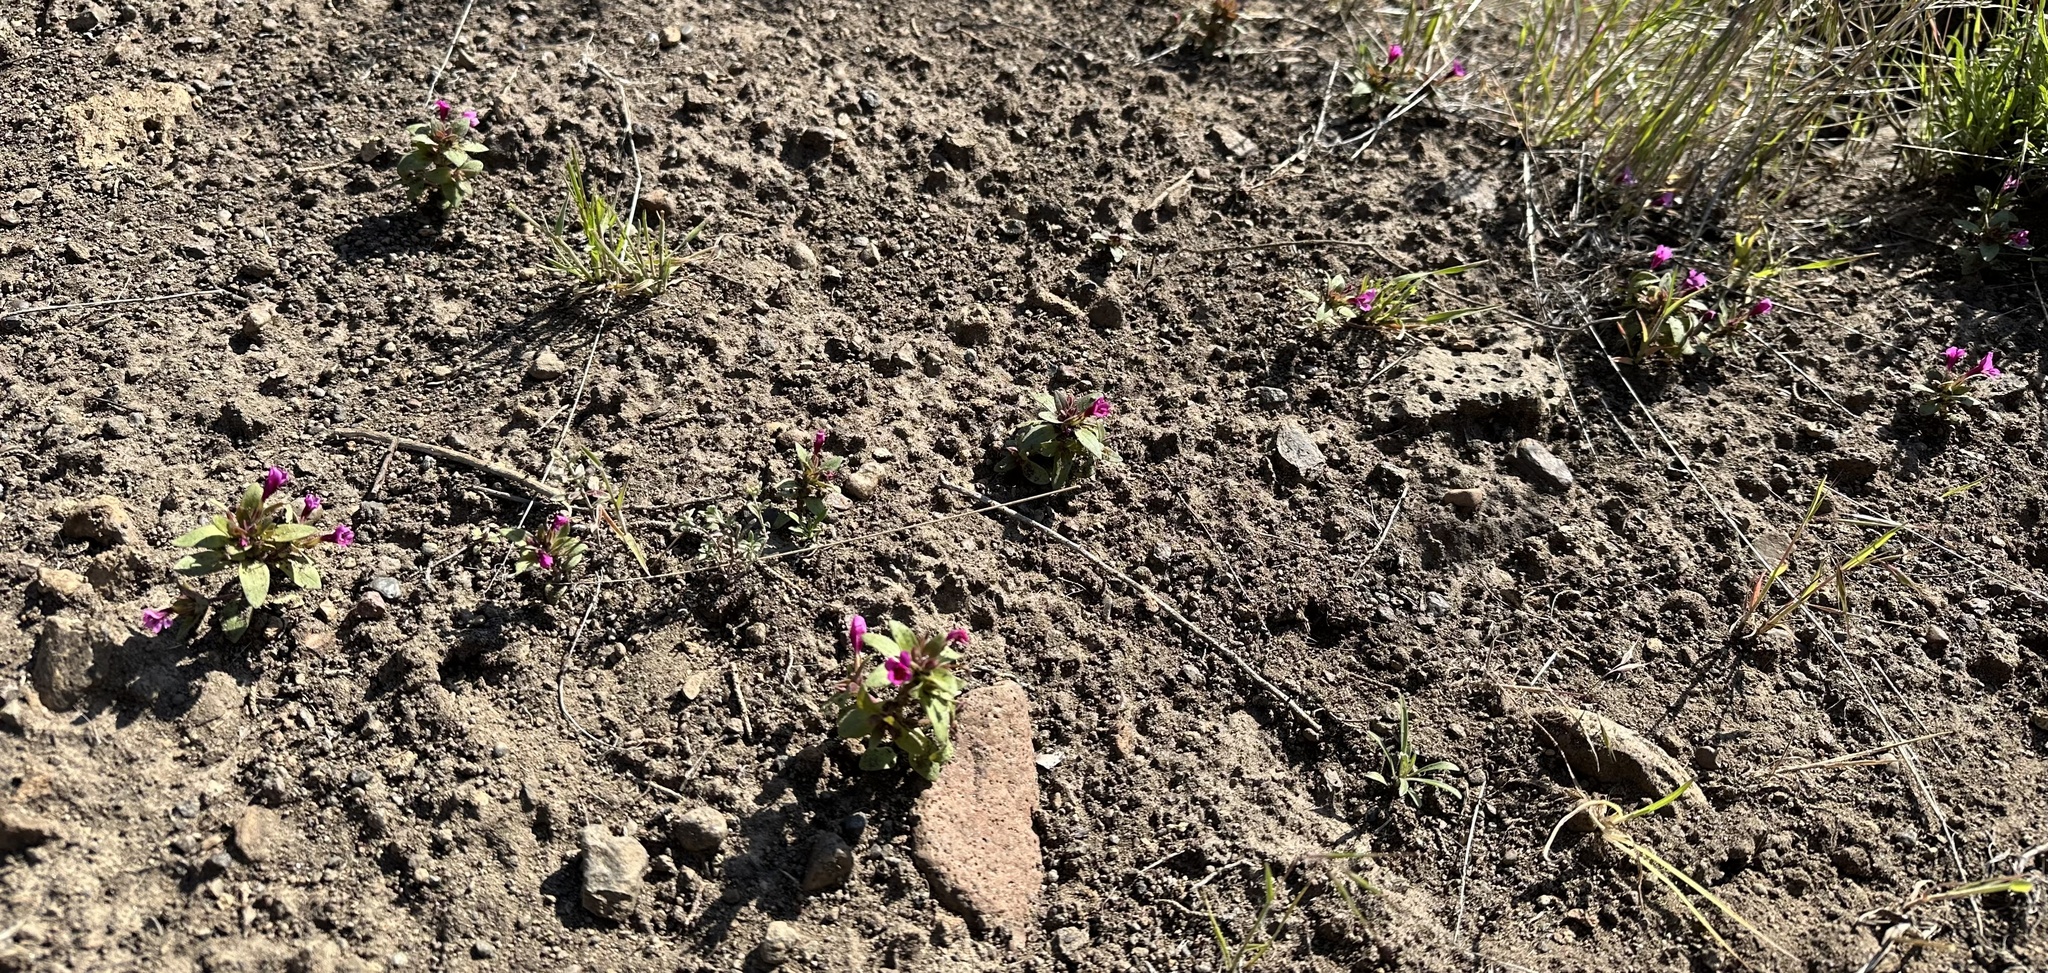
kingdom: Plantae
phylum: Tracheophyta
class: Magnoliopsida
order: Lamiales
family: Phrymaceae
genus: Diplacus
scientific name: Diplacus nanus
